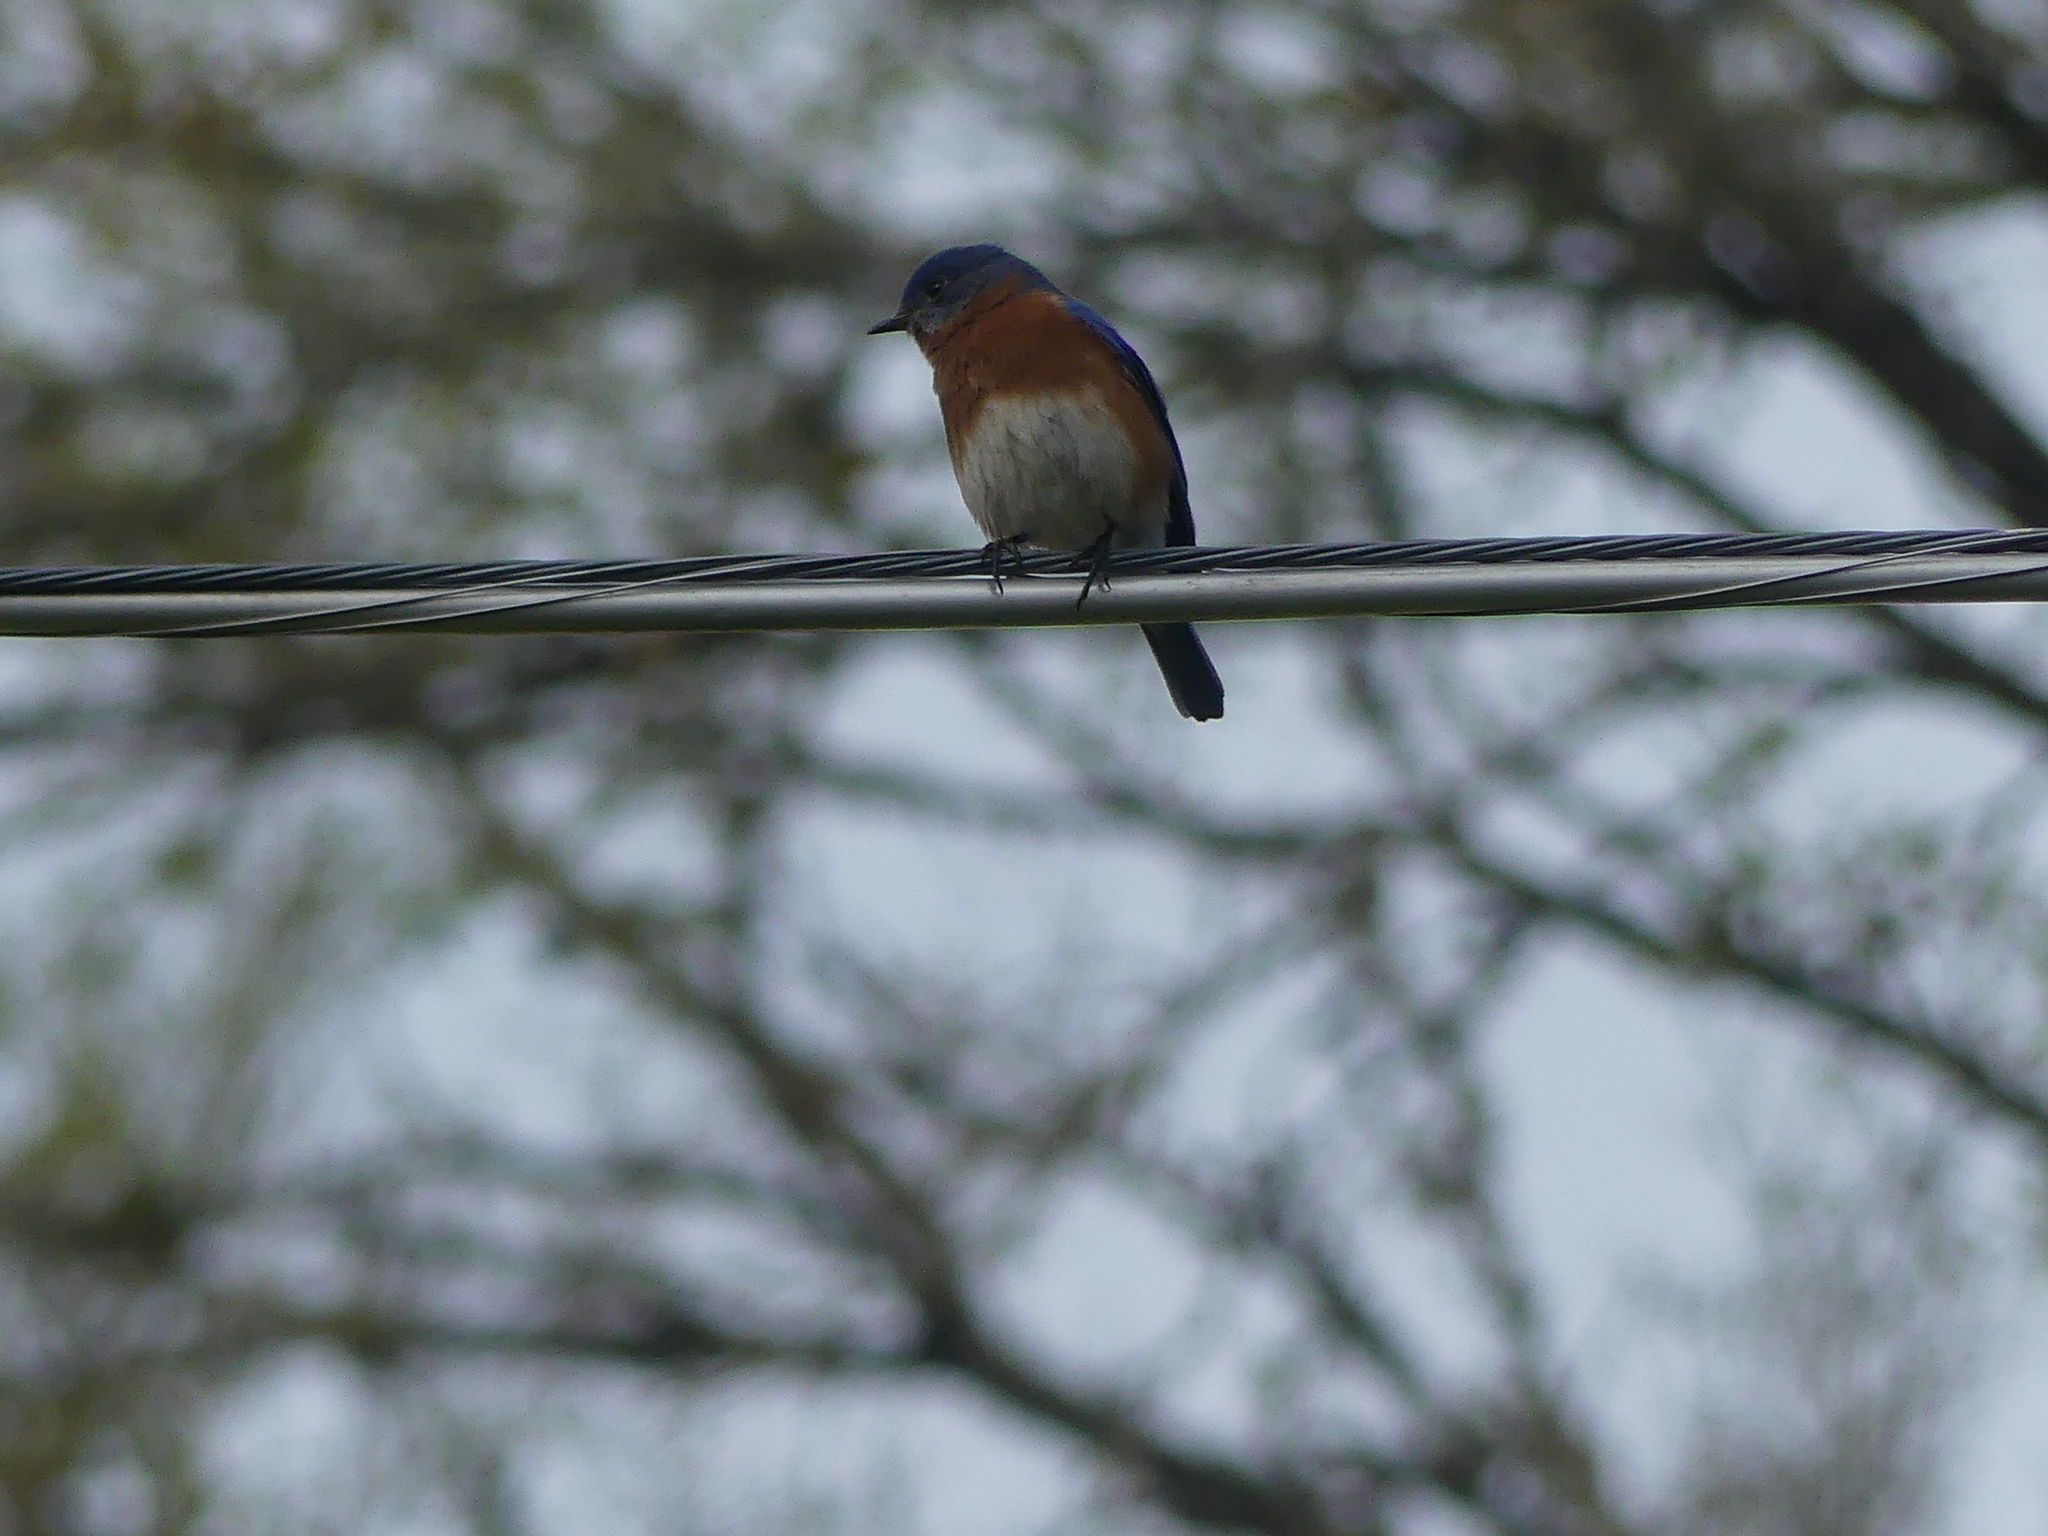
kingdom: Animalia
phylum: Chordata
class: Aves
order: Passeriformes
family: Turdidae
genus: Sialia
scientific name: Sialia sialis
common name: Eastern bluebird
